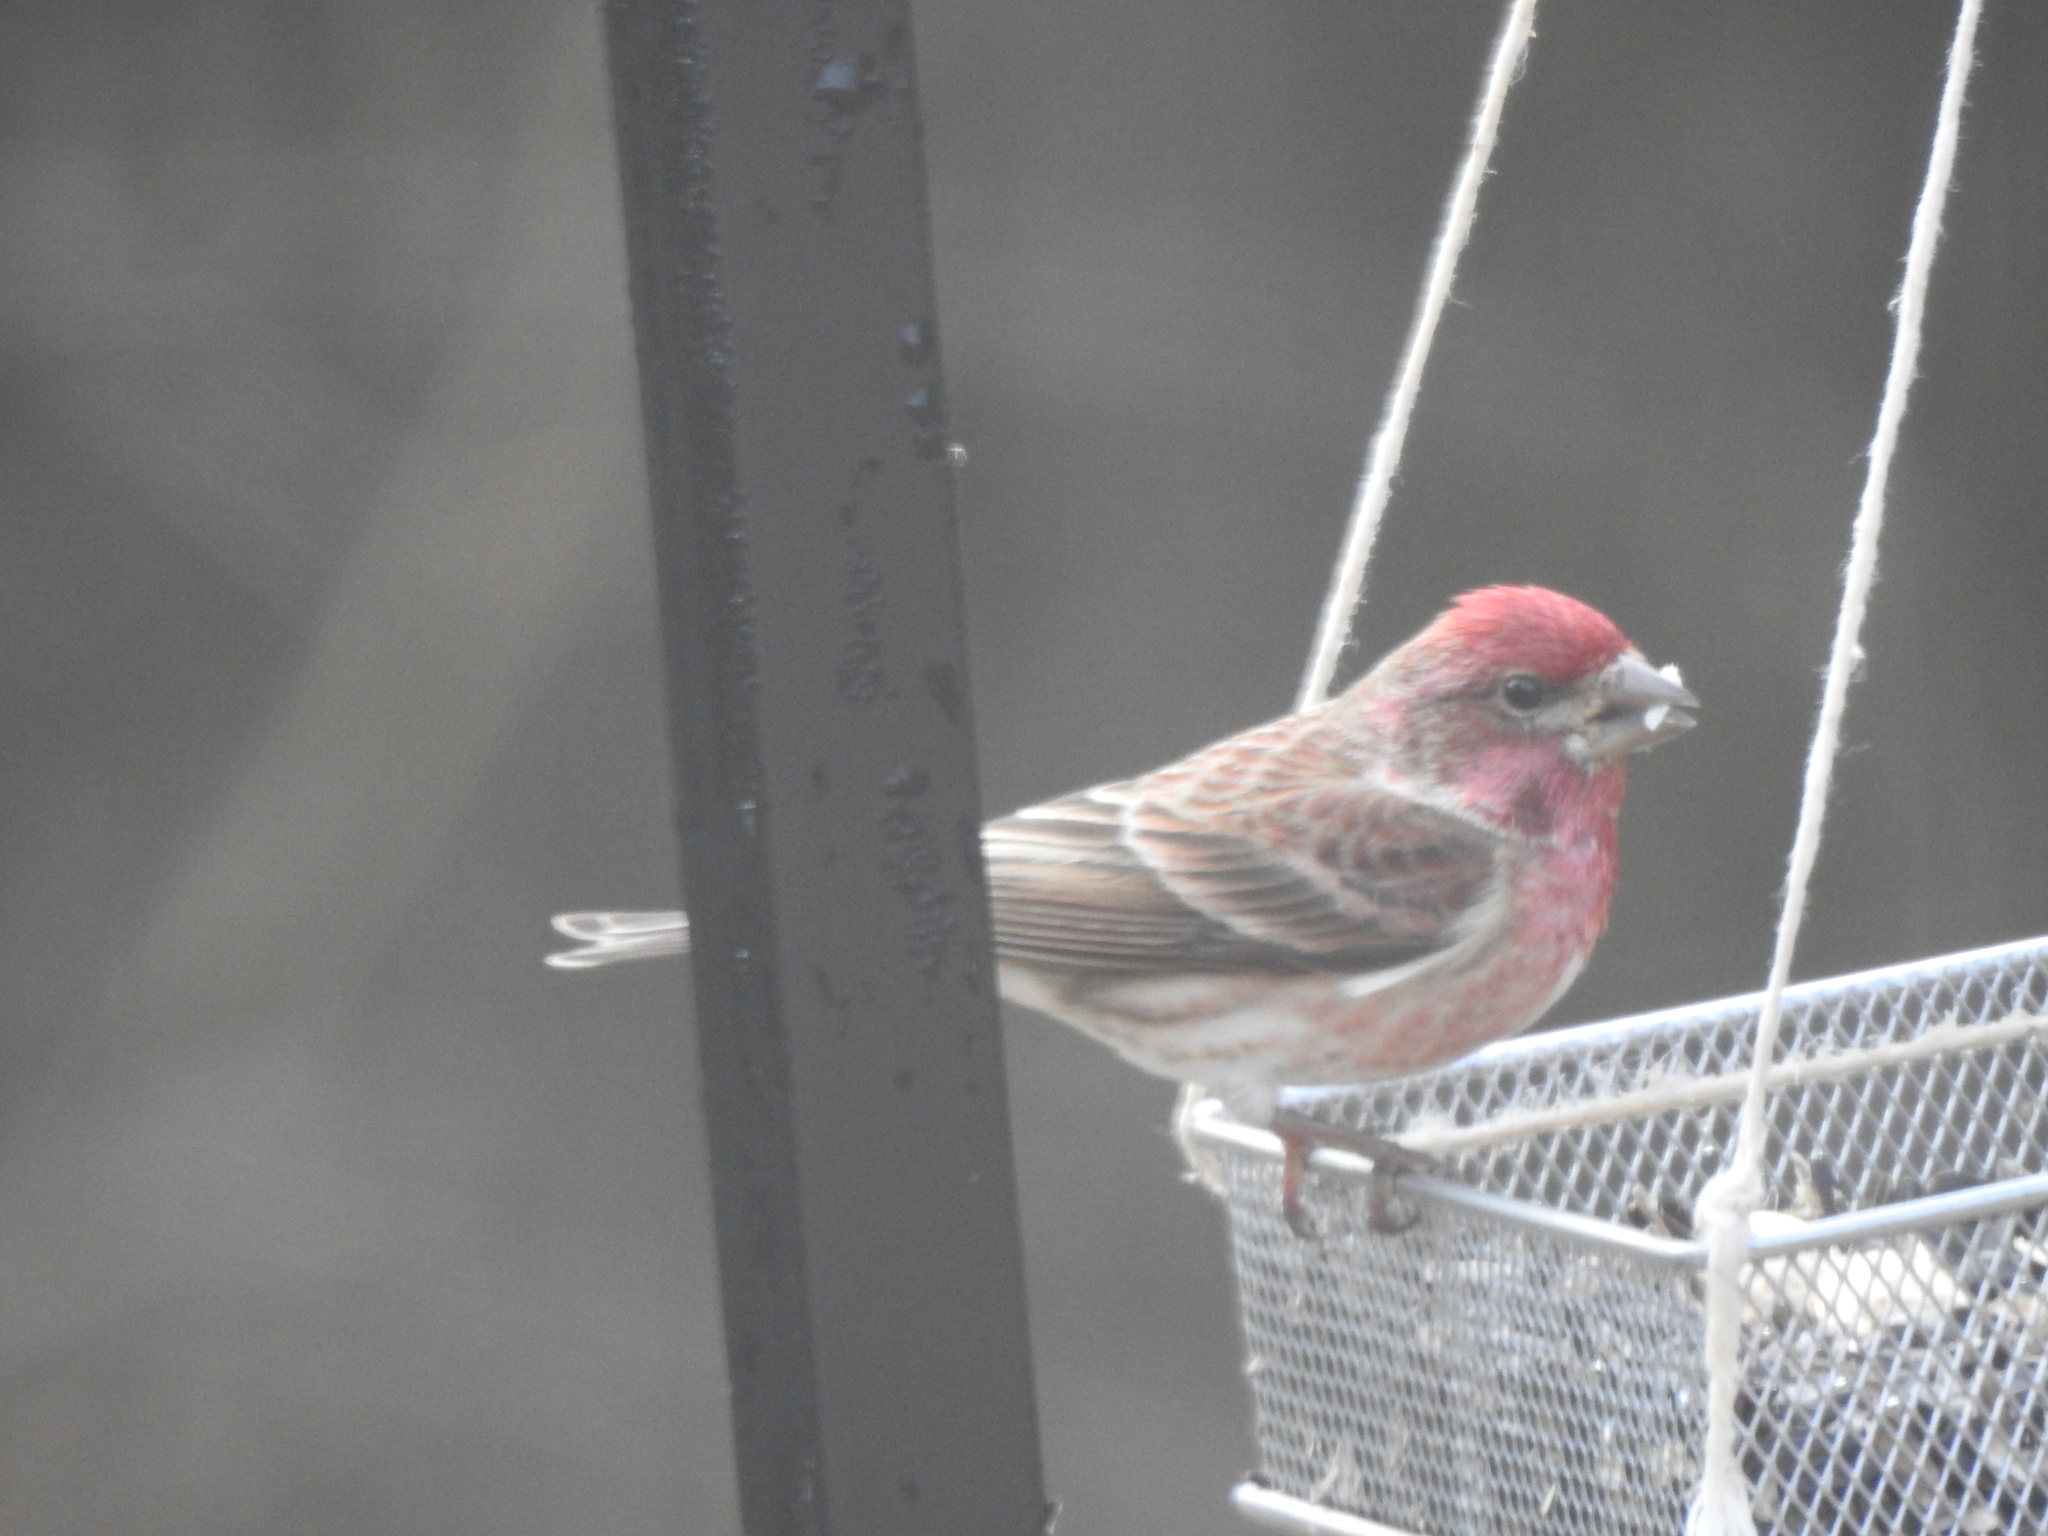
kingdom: Animalia
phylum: Chordata
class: Aves
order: Passeriformes
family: Fringillidae
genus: Haemorhous
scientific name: Haemorhous purpureus
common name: Purple finch
